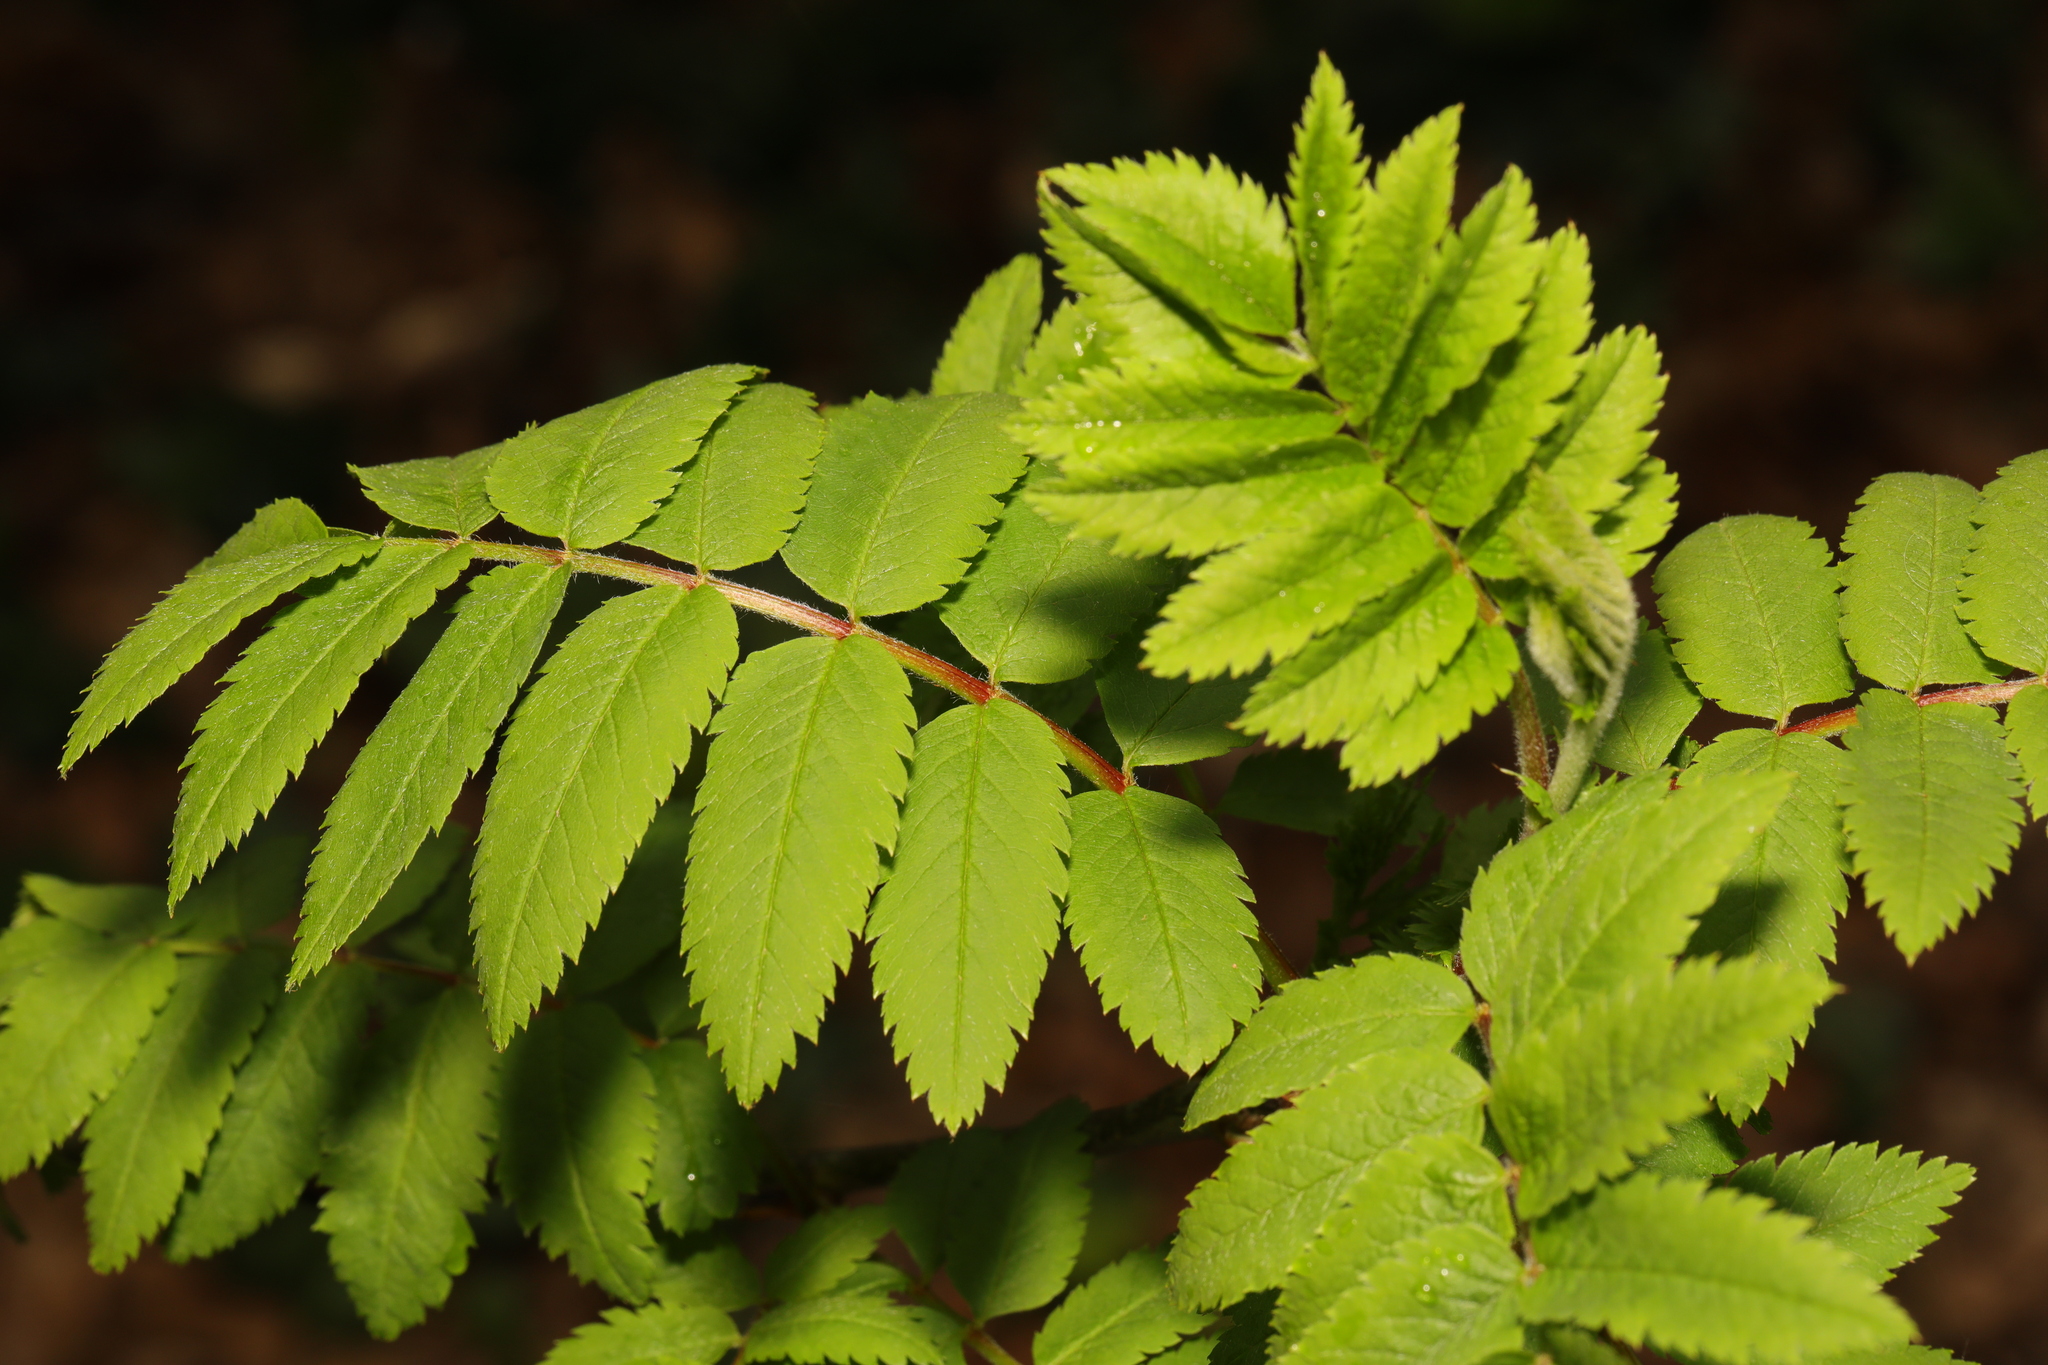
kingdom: Plantae
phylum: Tracheophyta
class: Magnoliopsida
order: Rosales
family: Rosaceae
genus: Sorbus
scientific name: Sorbus aucuparia
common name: Rowan
